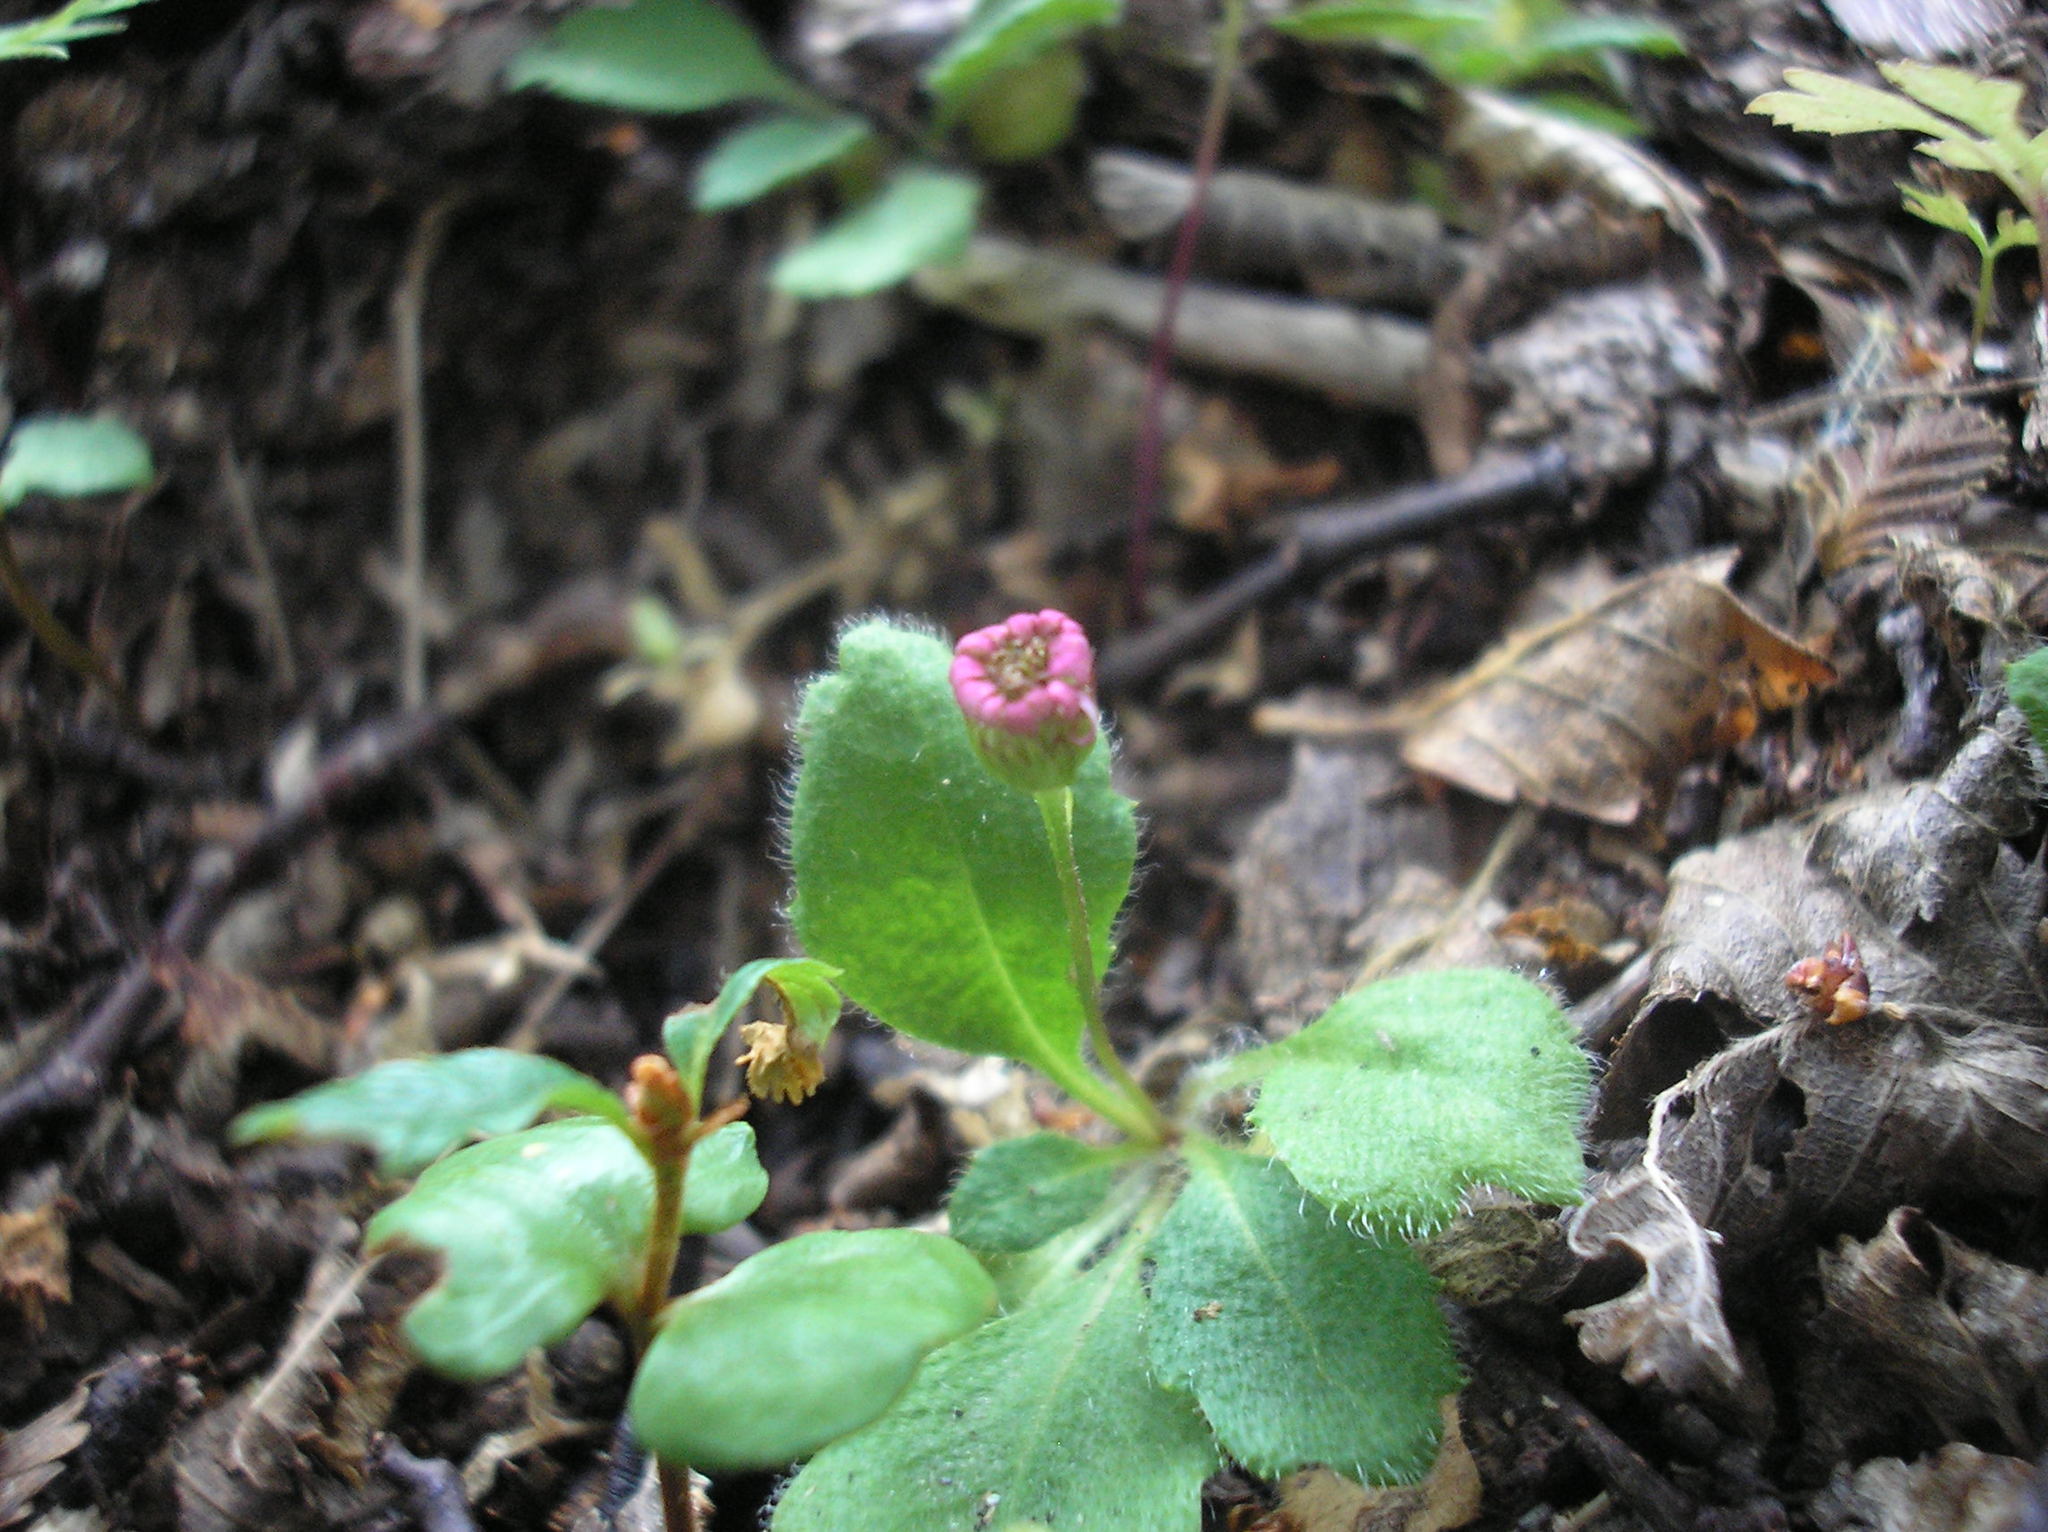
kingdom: Plantae
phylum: Tracheophyta
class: Magnoliopsida
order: Asterales
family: Asteraceae
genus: Lagenophora
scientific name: Lagenophora hariotii
